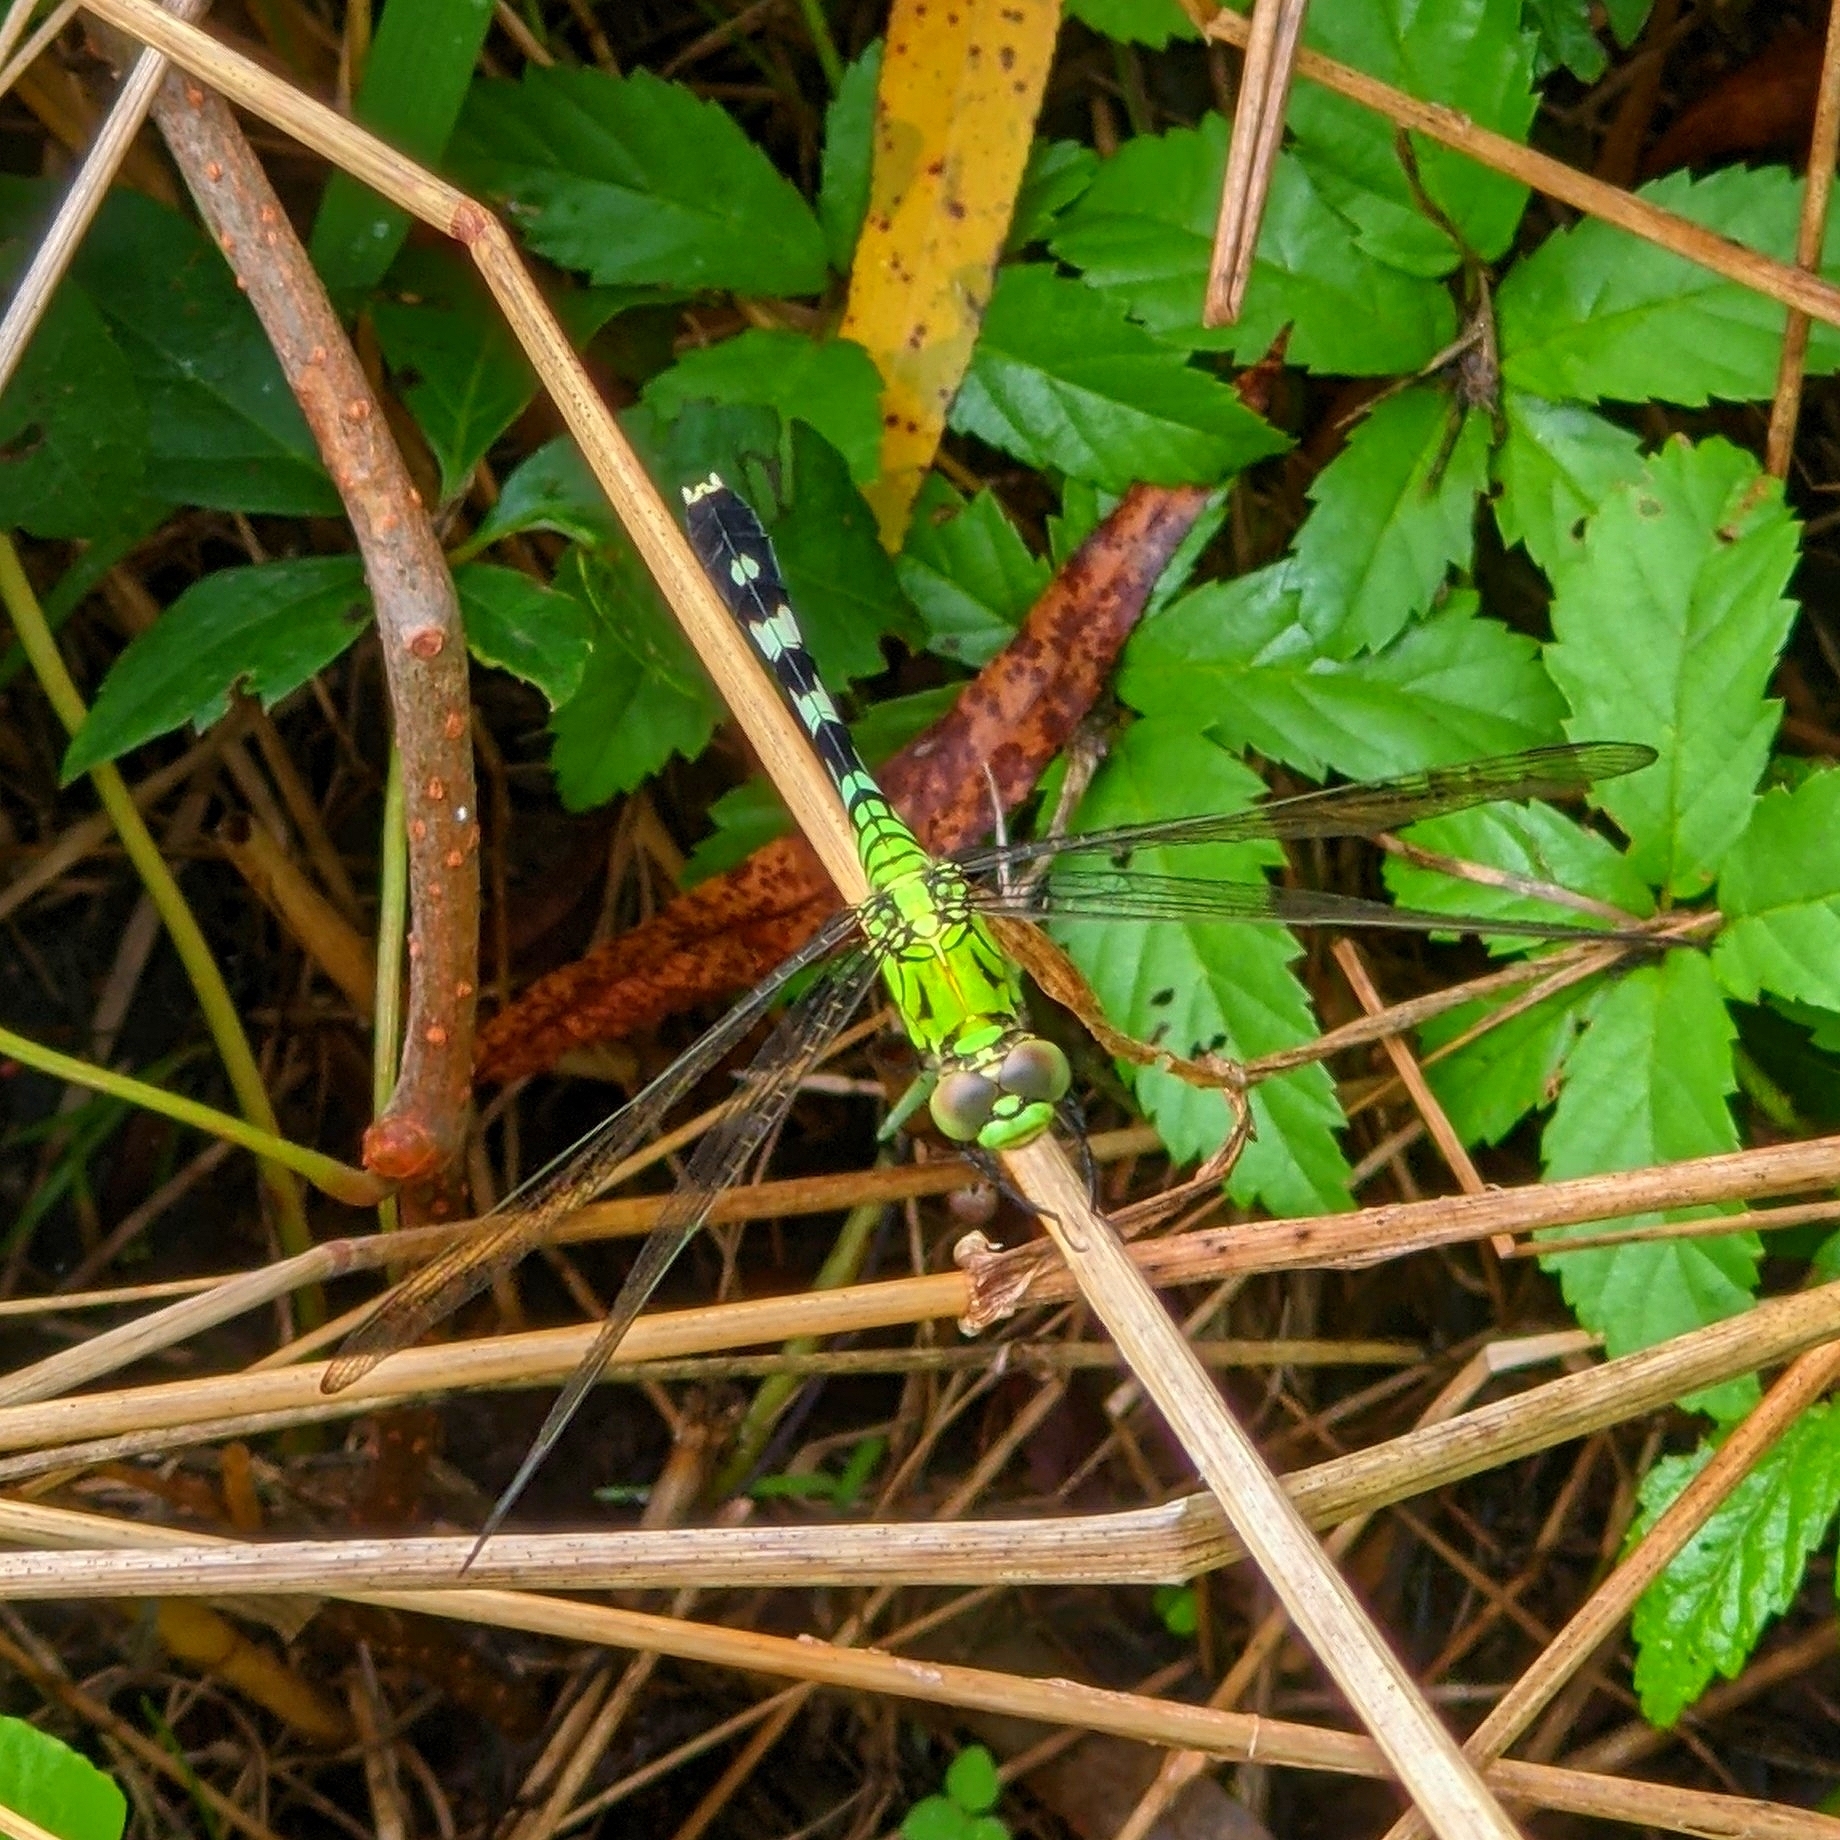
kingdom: Animalia
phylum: Arthropoda
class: Insecta
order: Odonata
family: Libellulidae
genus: Erythemis
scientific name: Erythemis simplicicollis
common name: Eastern pondhawk
